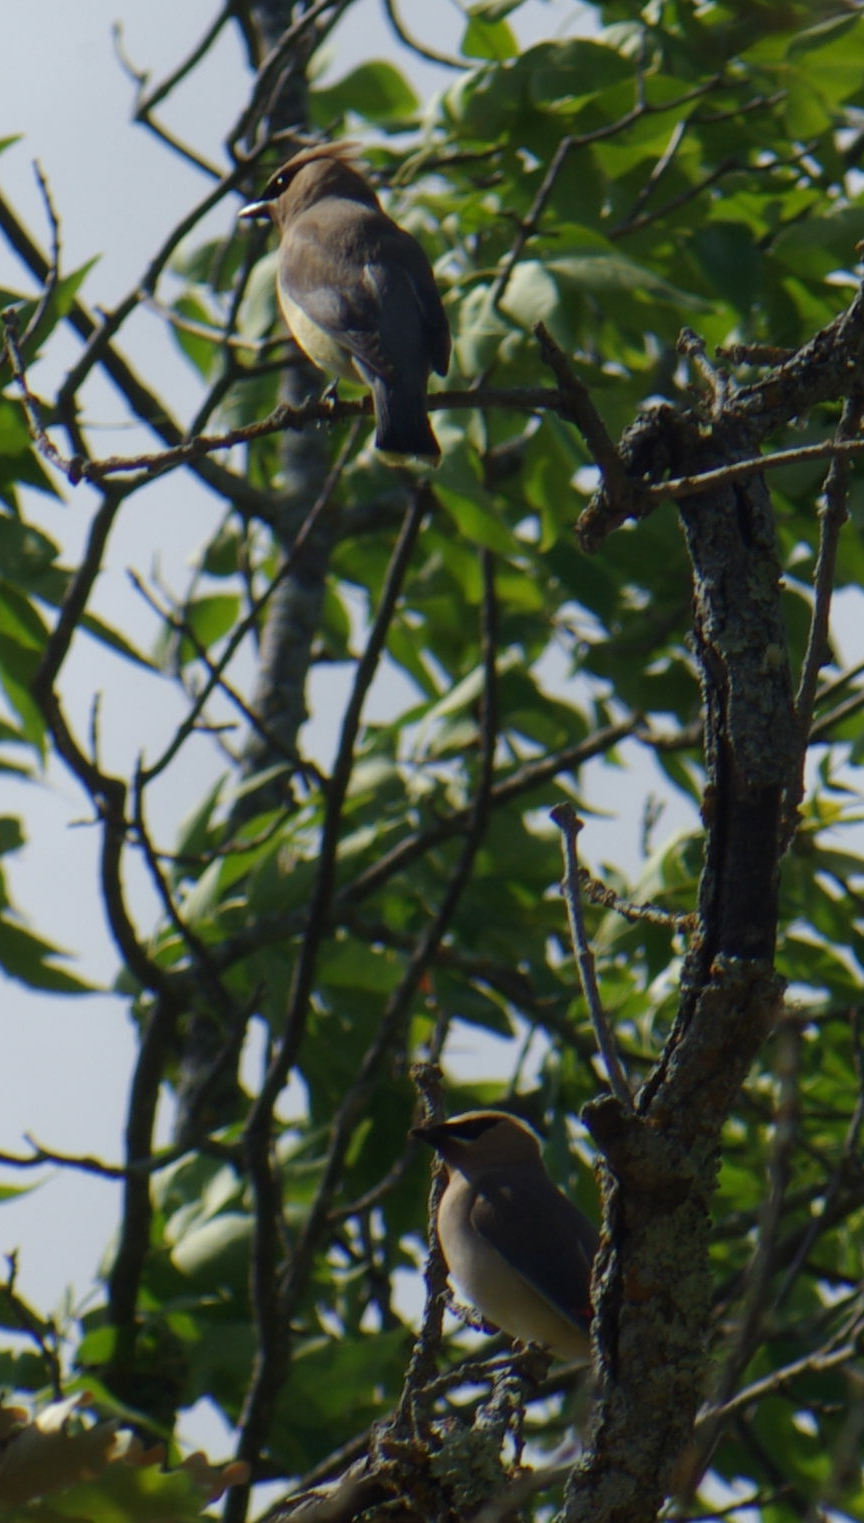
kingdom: Animalia
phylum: Chordata
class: Aves
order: Passeriformes
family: Bombycillidae
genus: Bombycilla
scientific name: Bombycilla cedrorum
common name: Cedar waxwing
